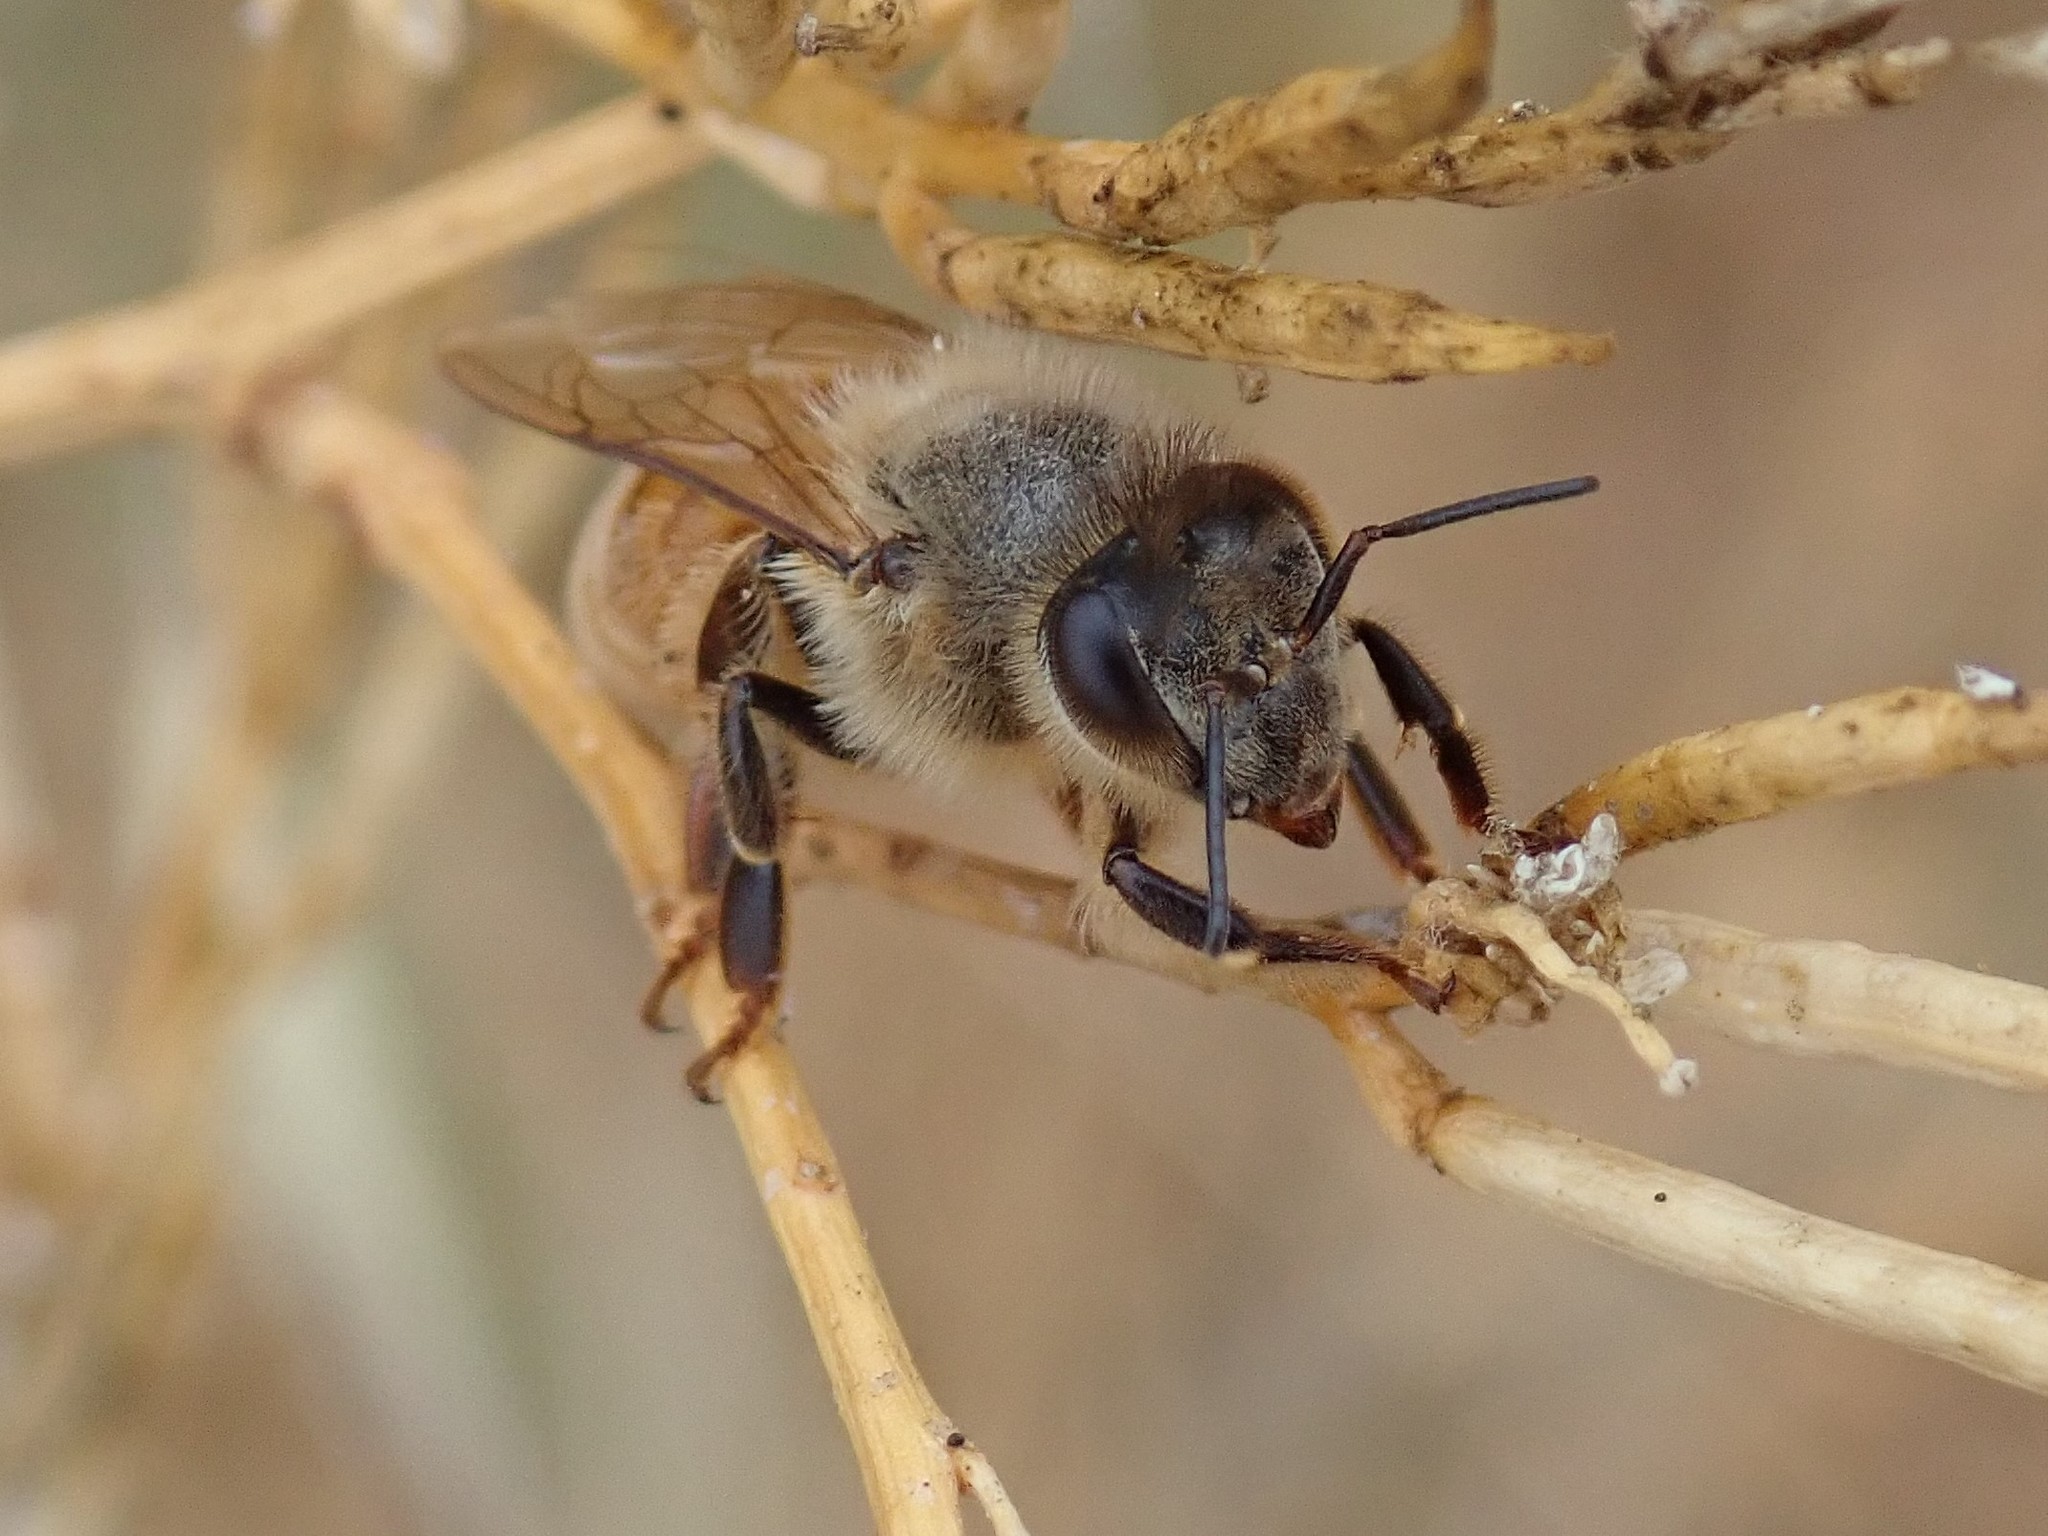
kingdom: Animalia
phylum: Arthropoda
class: Insecta
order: Hymenoptera
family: Apidae
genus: Apis
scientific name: Apis mellifera
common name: Honey bee
